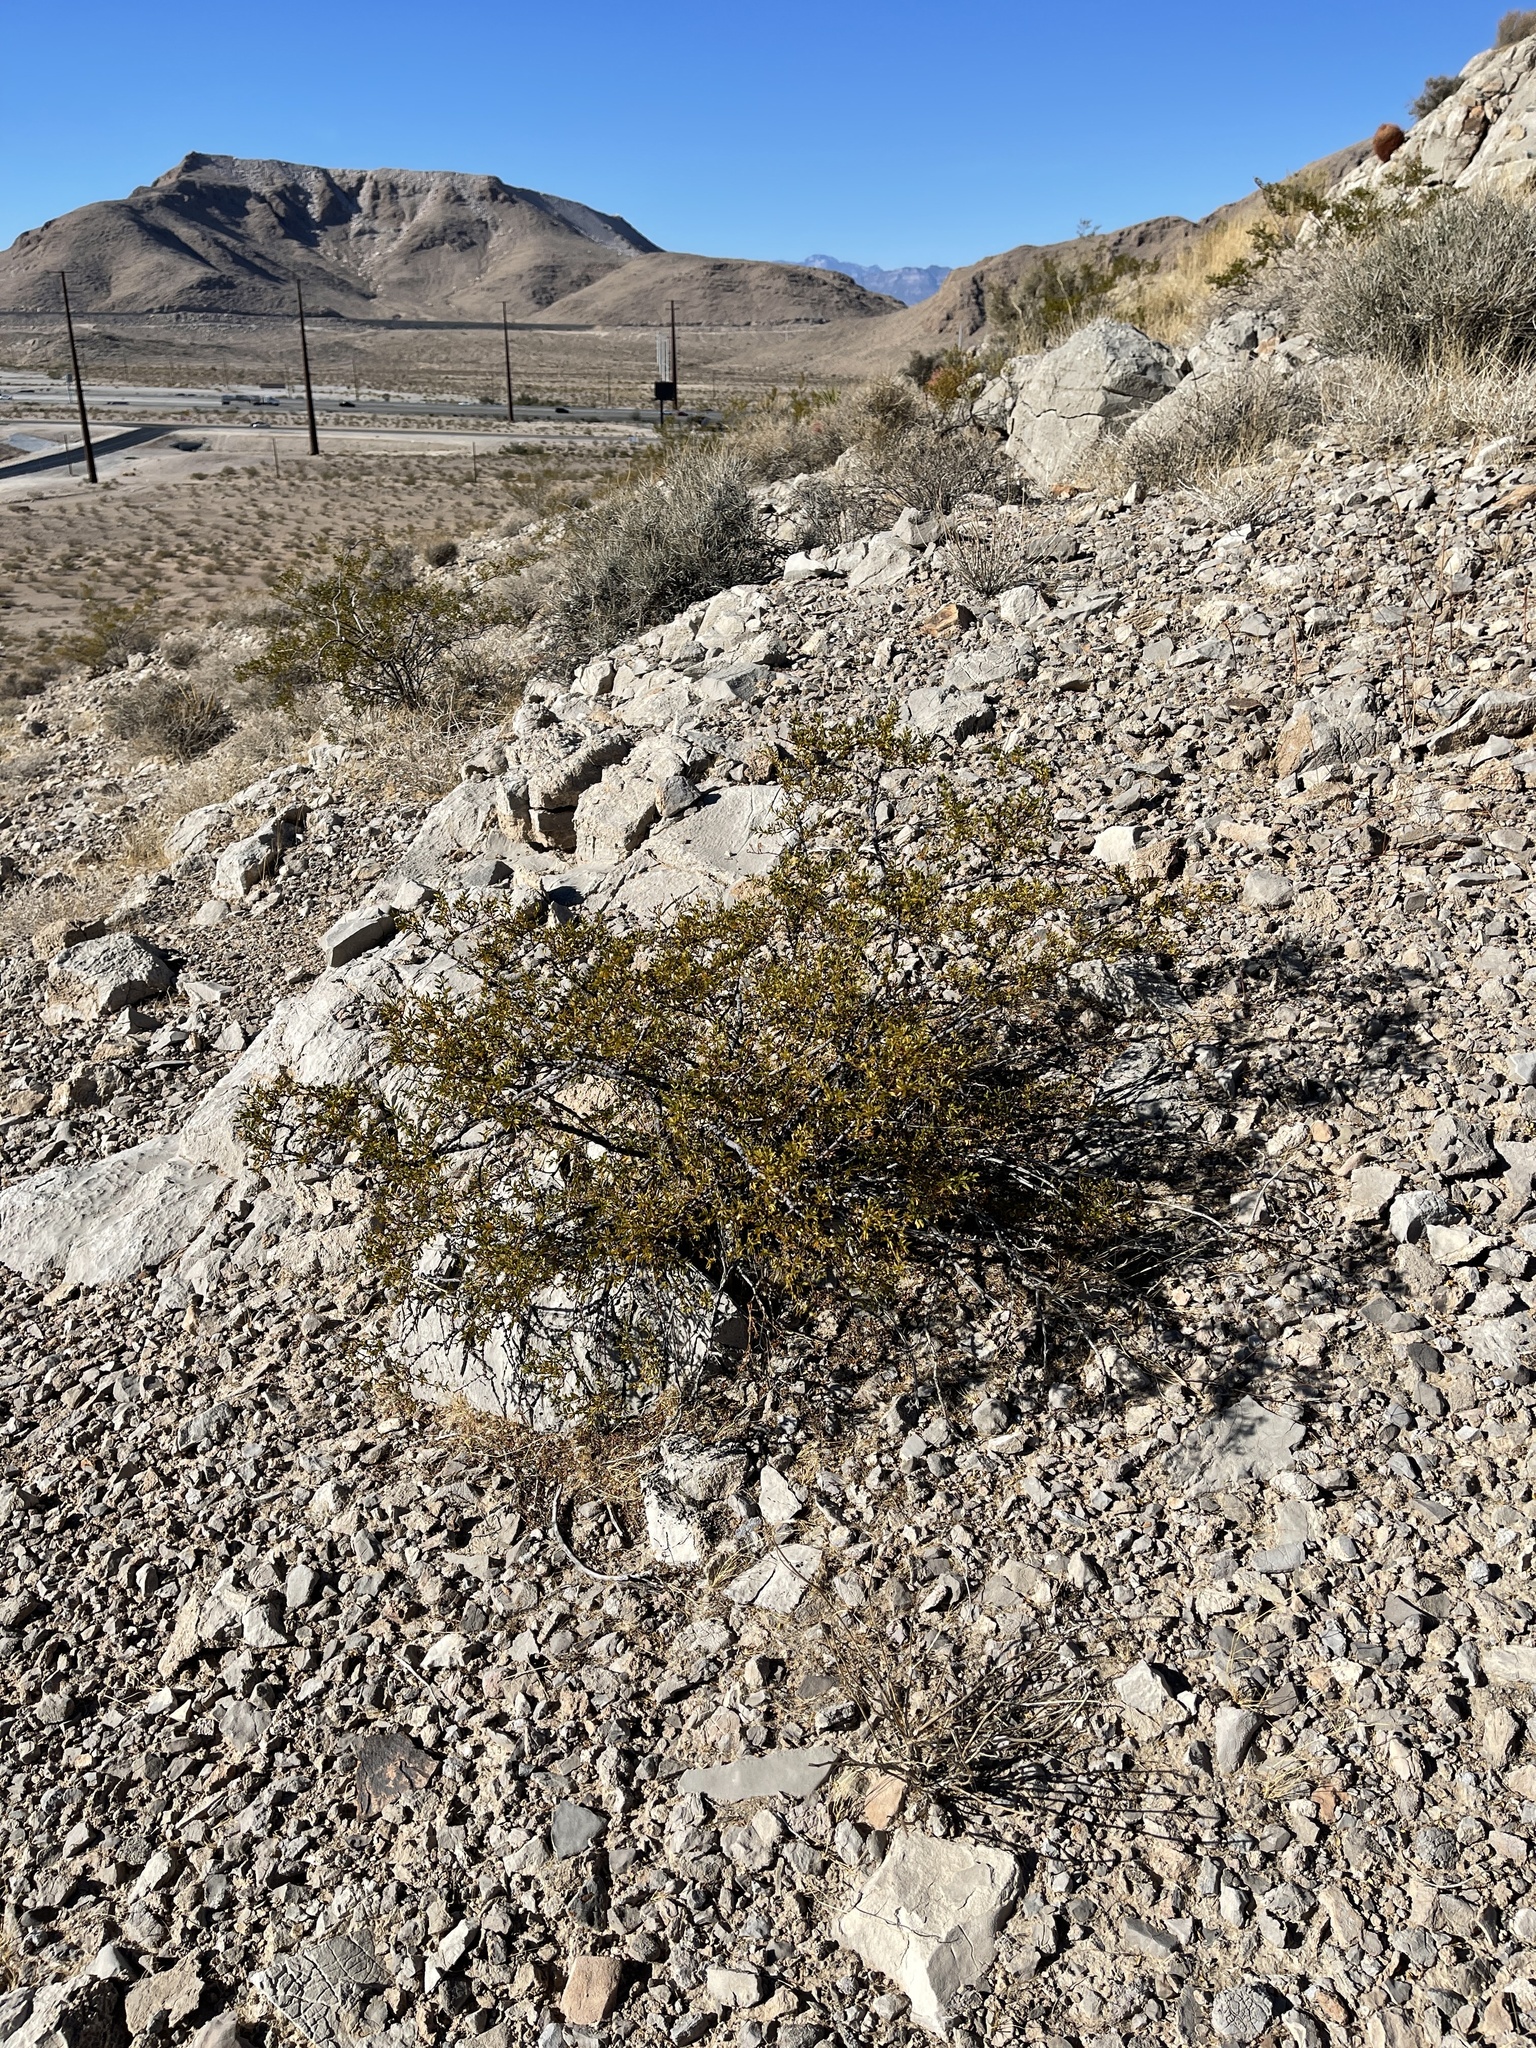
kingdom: Plantae
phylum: Tracheophyta
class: Magnoliopsida
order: Zygophyllales
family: Zygophyllaceae
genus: Larrea
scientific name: Larrea tridentata
